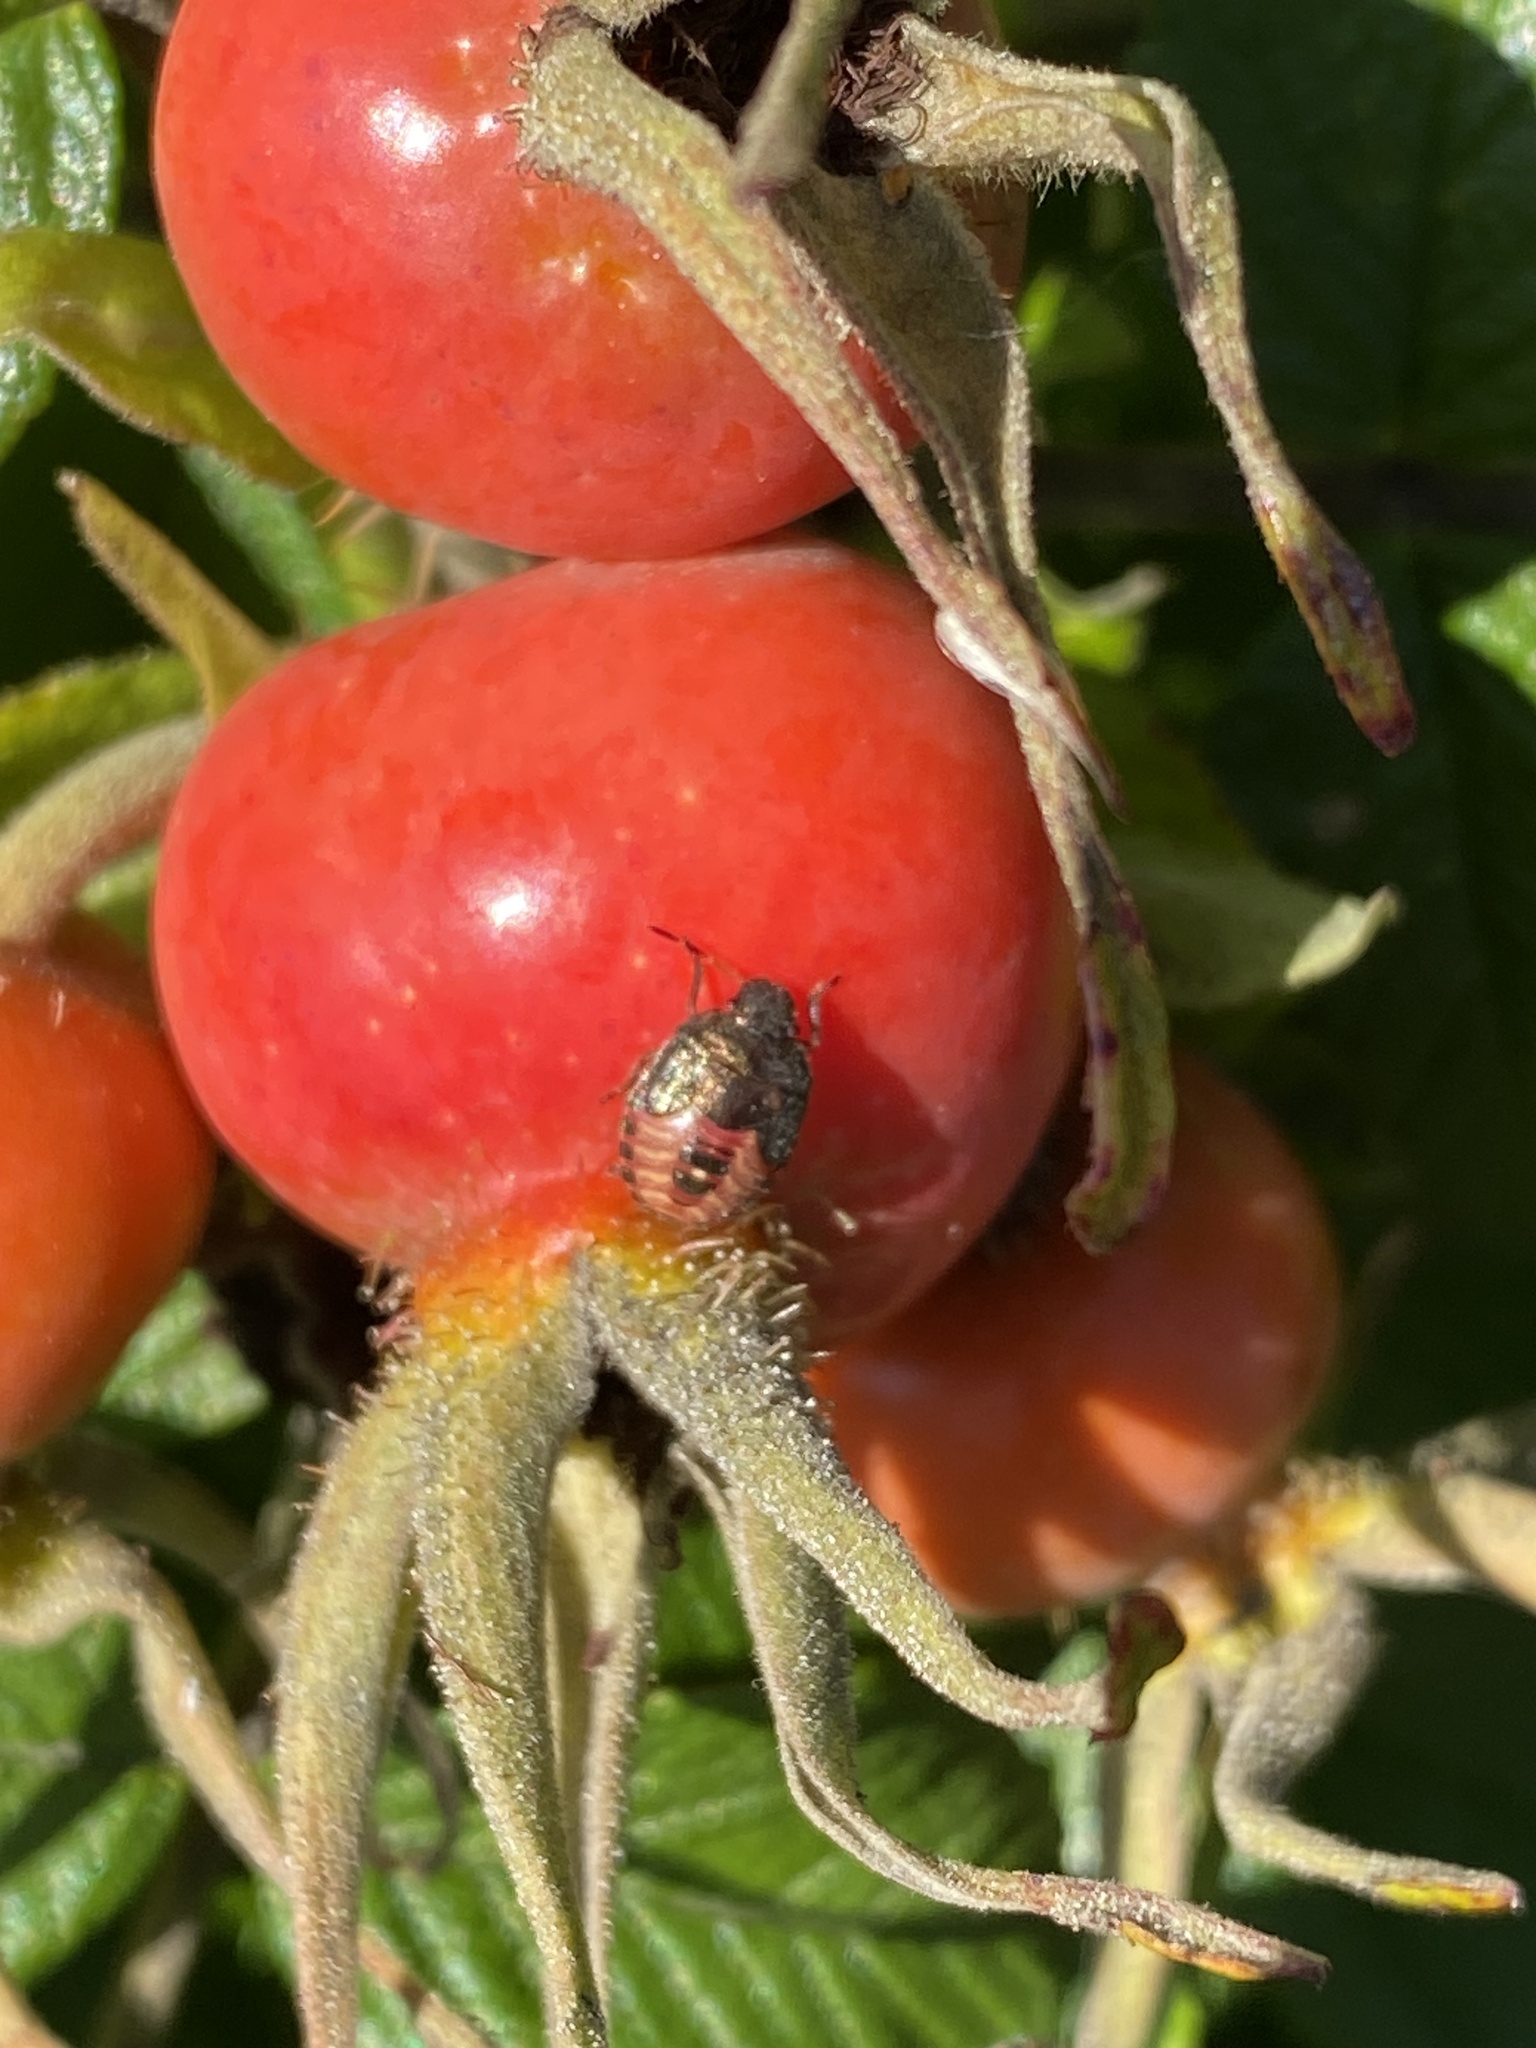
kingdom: Animalia
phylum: Arthropoda
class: Insecta
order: Hemiptera
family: Pentatomidae
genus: Holcostethus
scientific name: Holcostethus strictus
